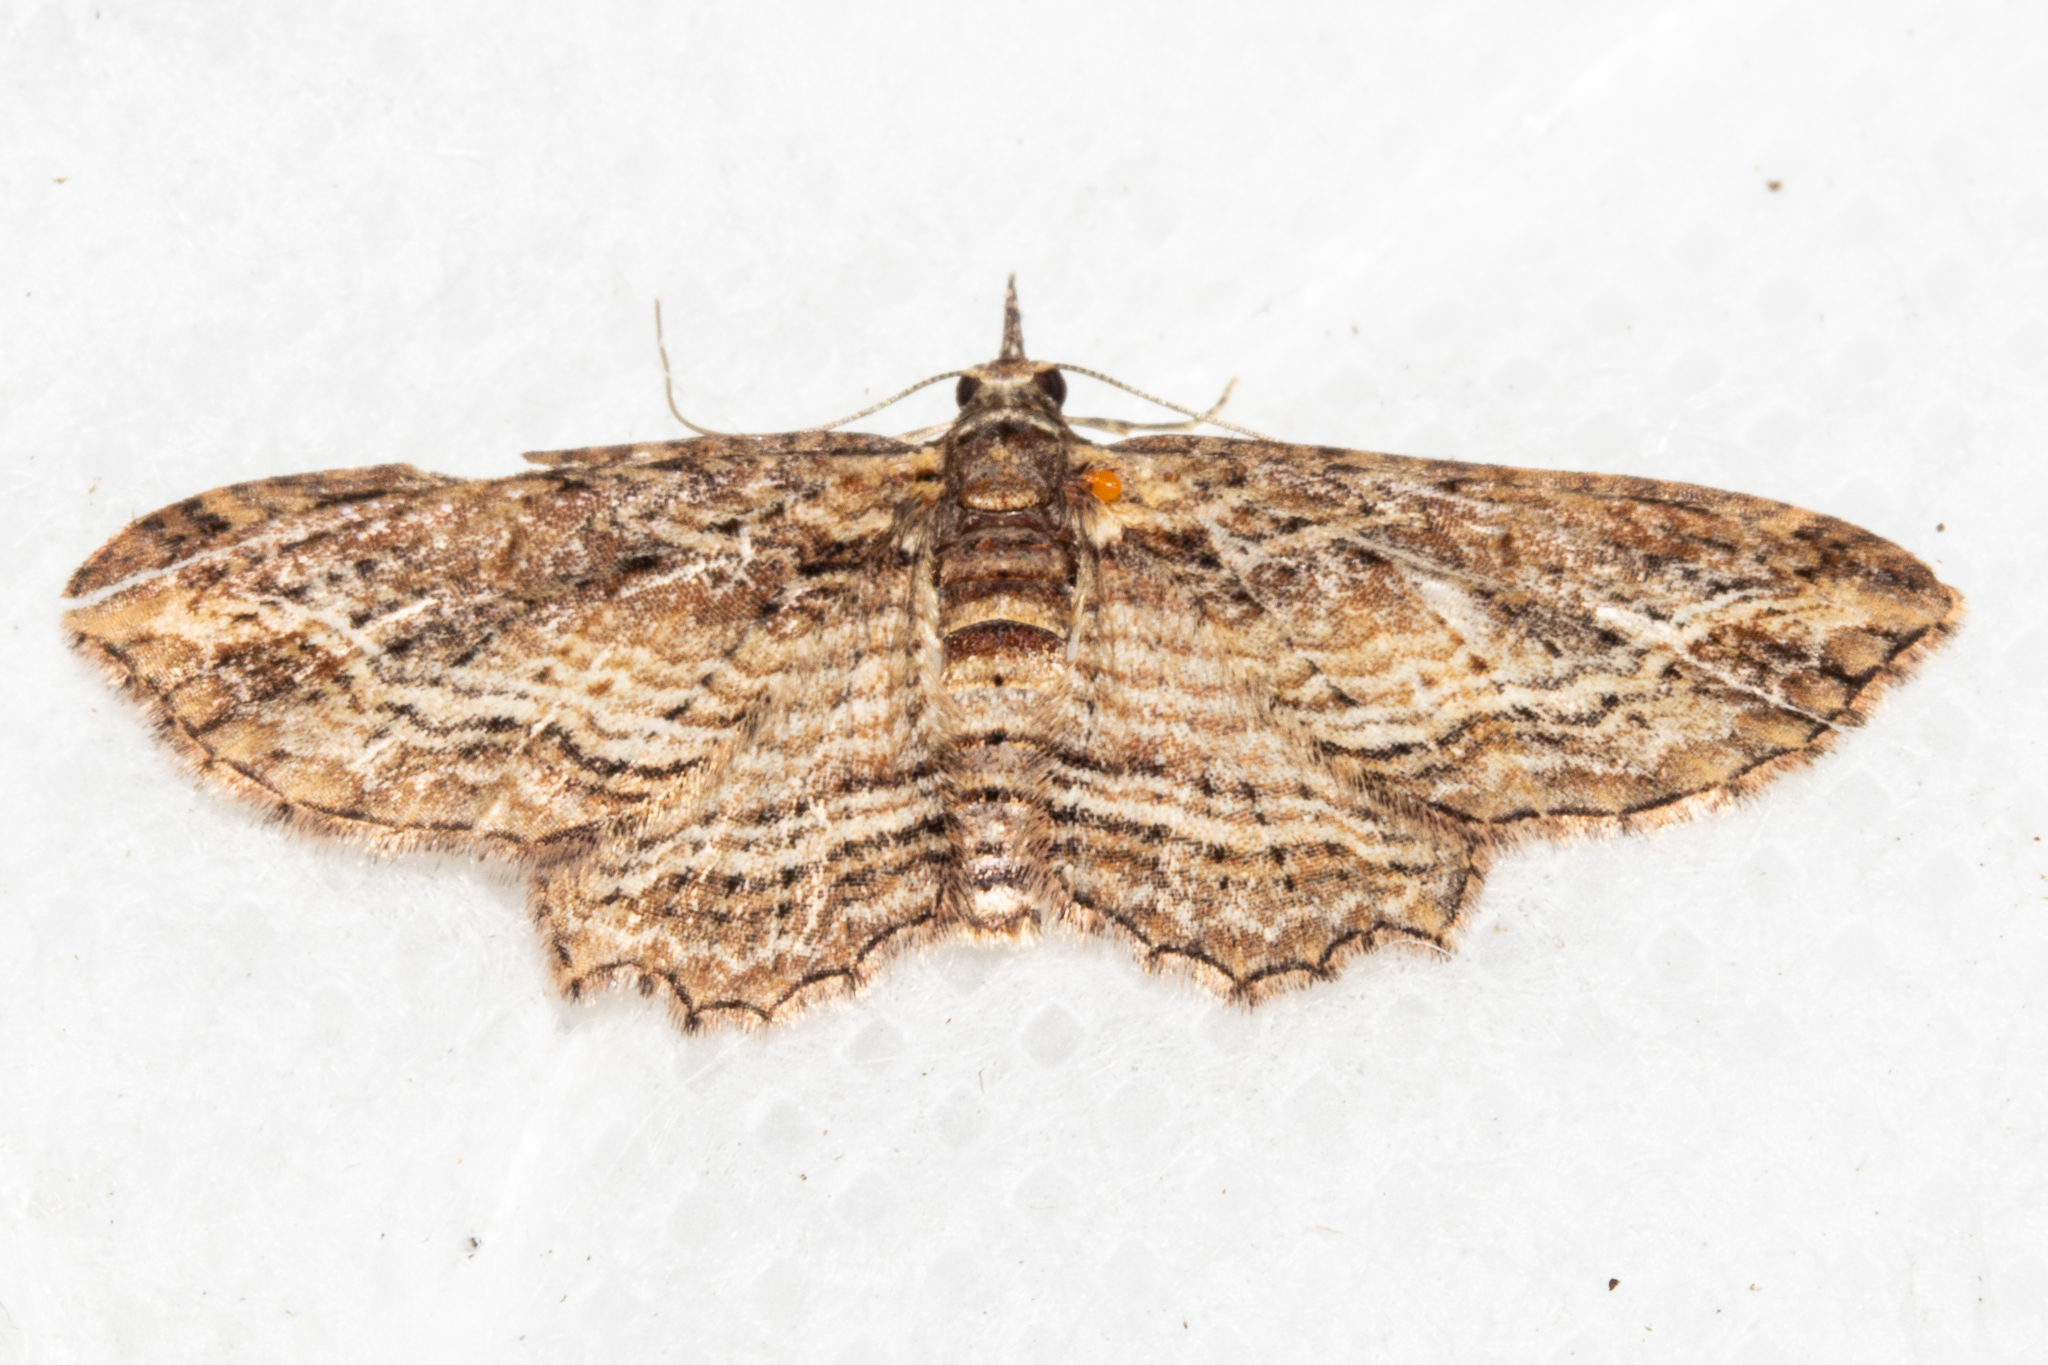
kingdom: Animalia
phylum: Arthropoda
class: Insecta
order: Lepidoptera
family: Geometridae
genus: Chloroclystis
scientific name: Chloroclystis filata
